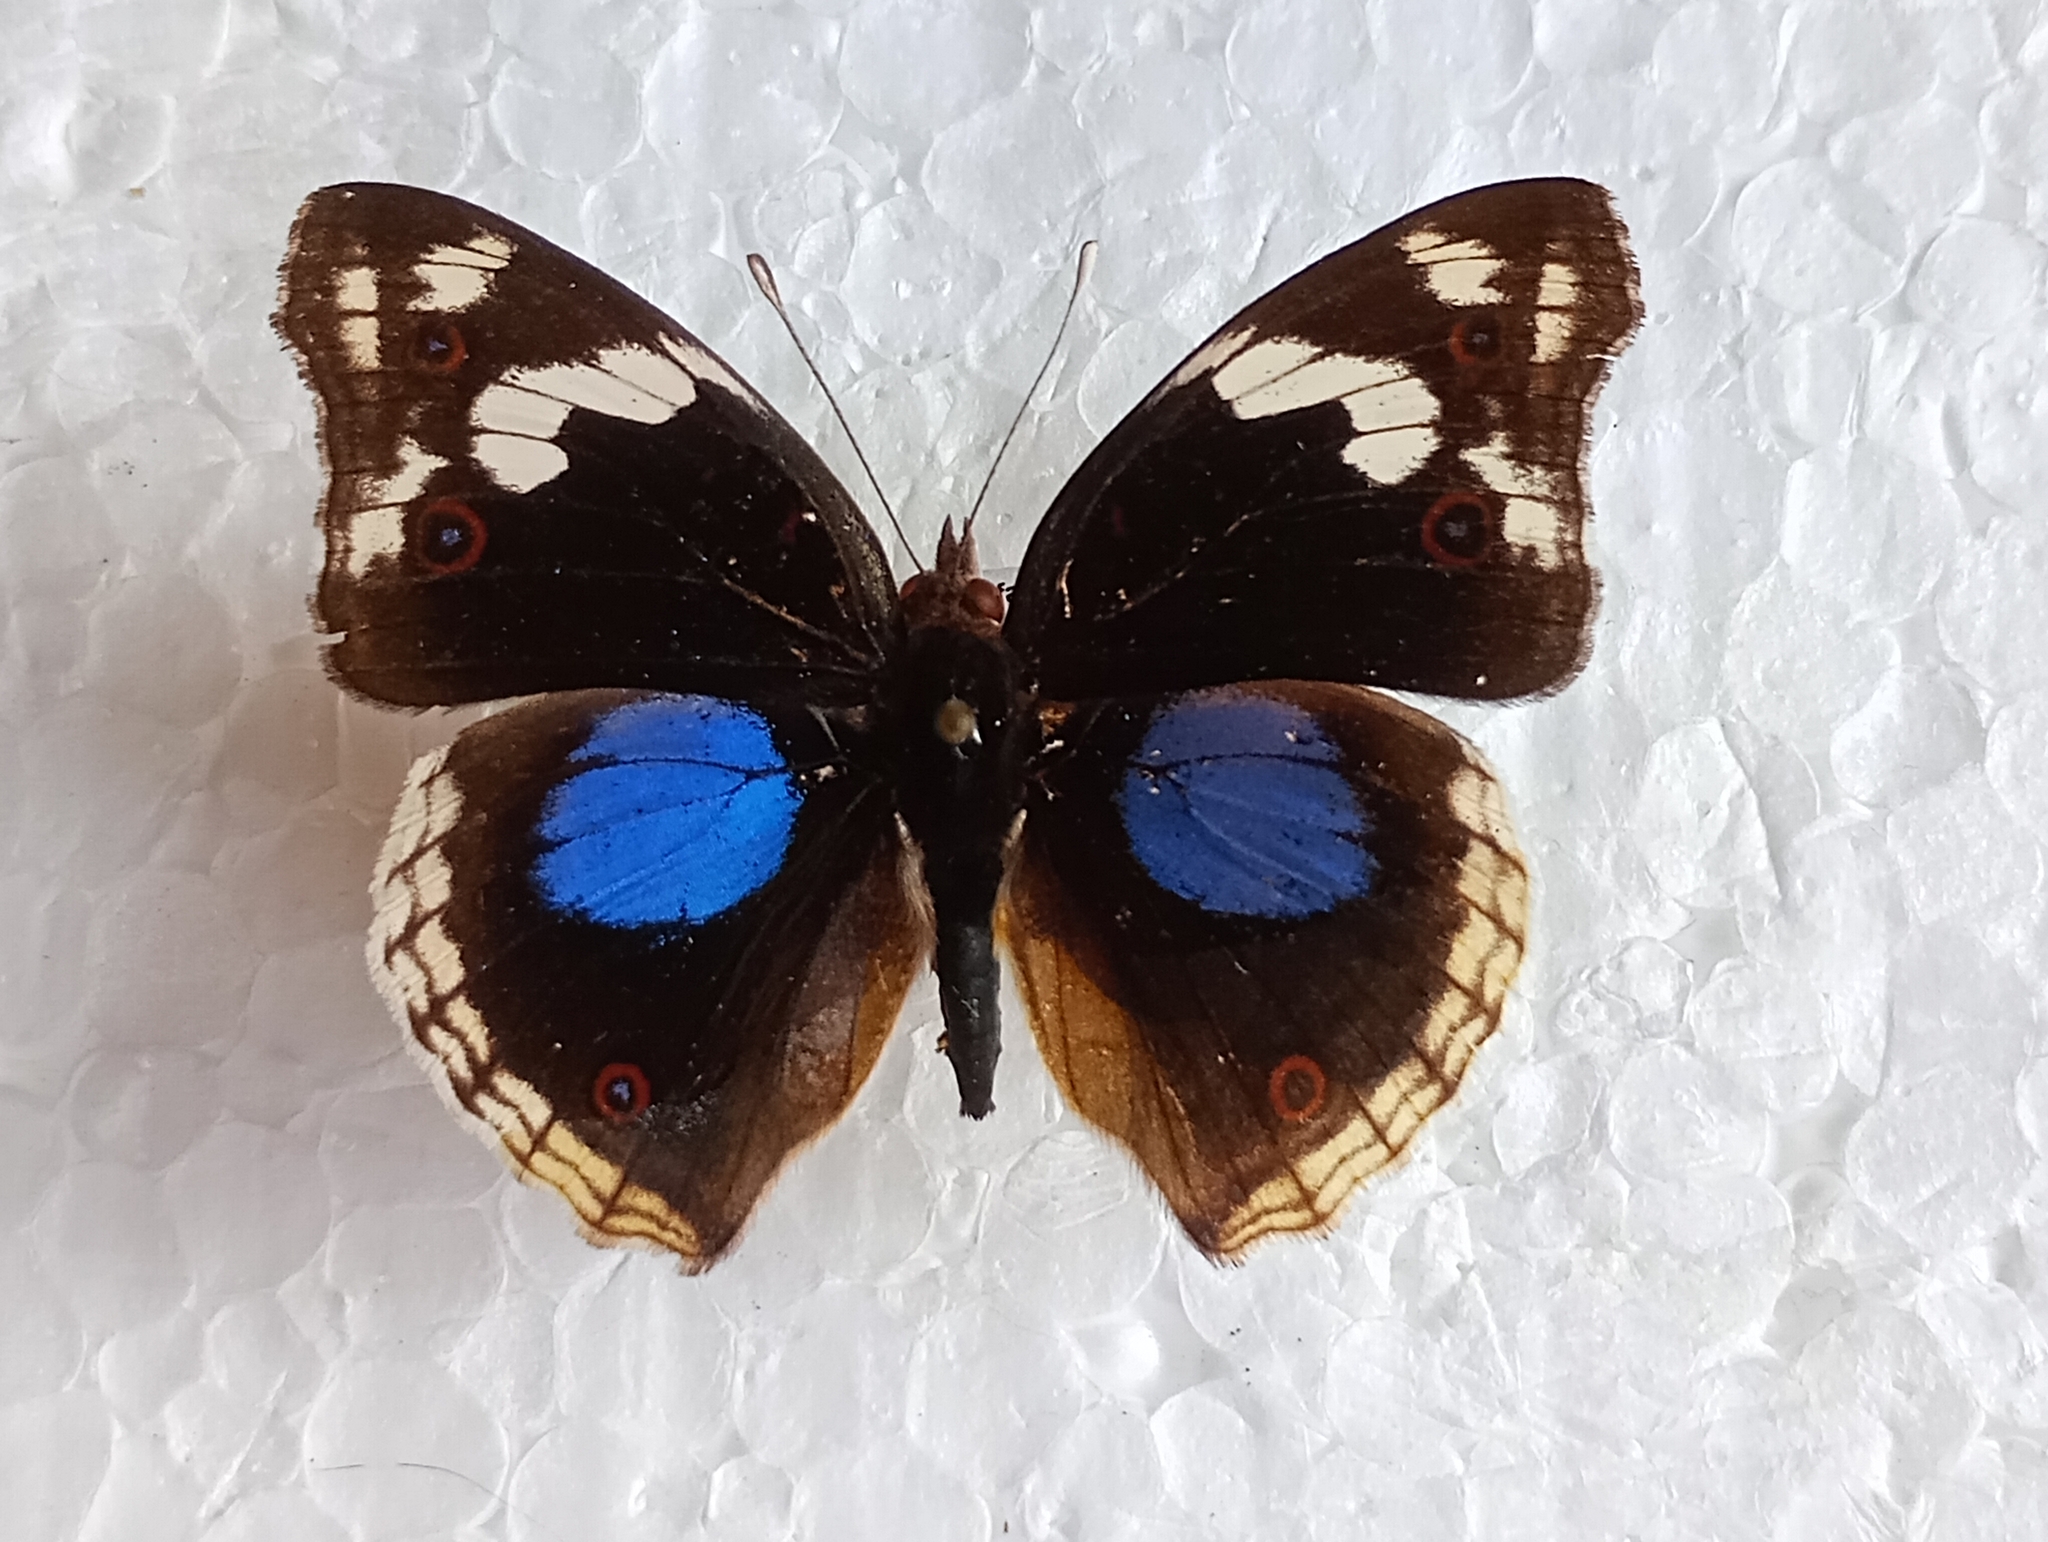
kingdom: Animalia
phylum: Arthropoda
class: Insecta
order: Lepidoptera
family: Nymphalidae
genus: Junonia
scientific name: Junonia oenone
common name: Dark blue pansy
